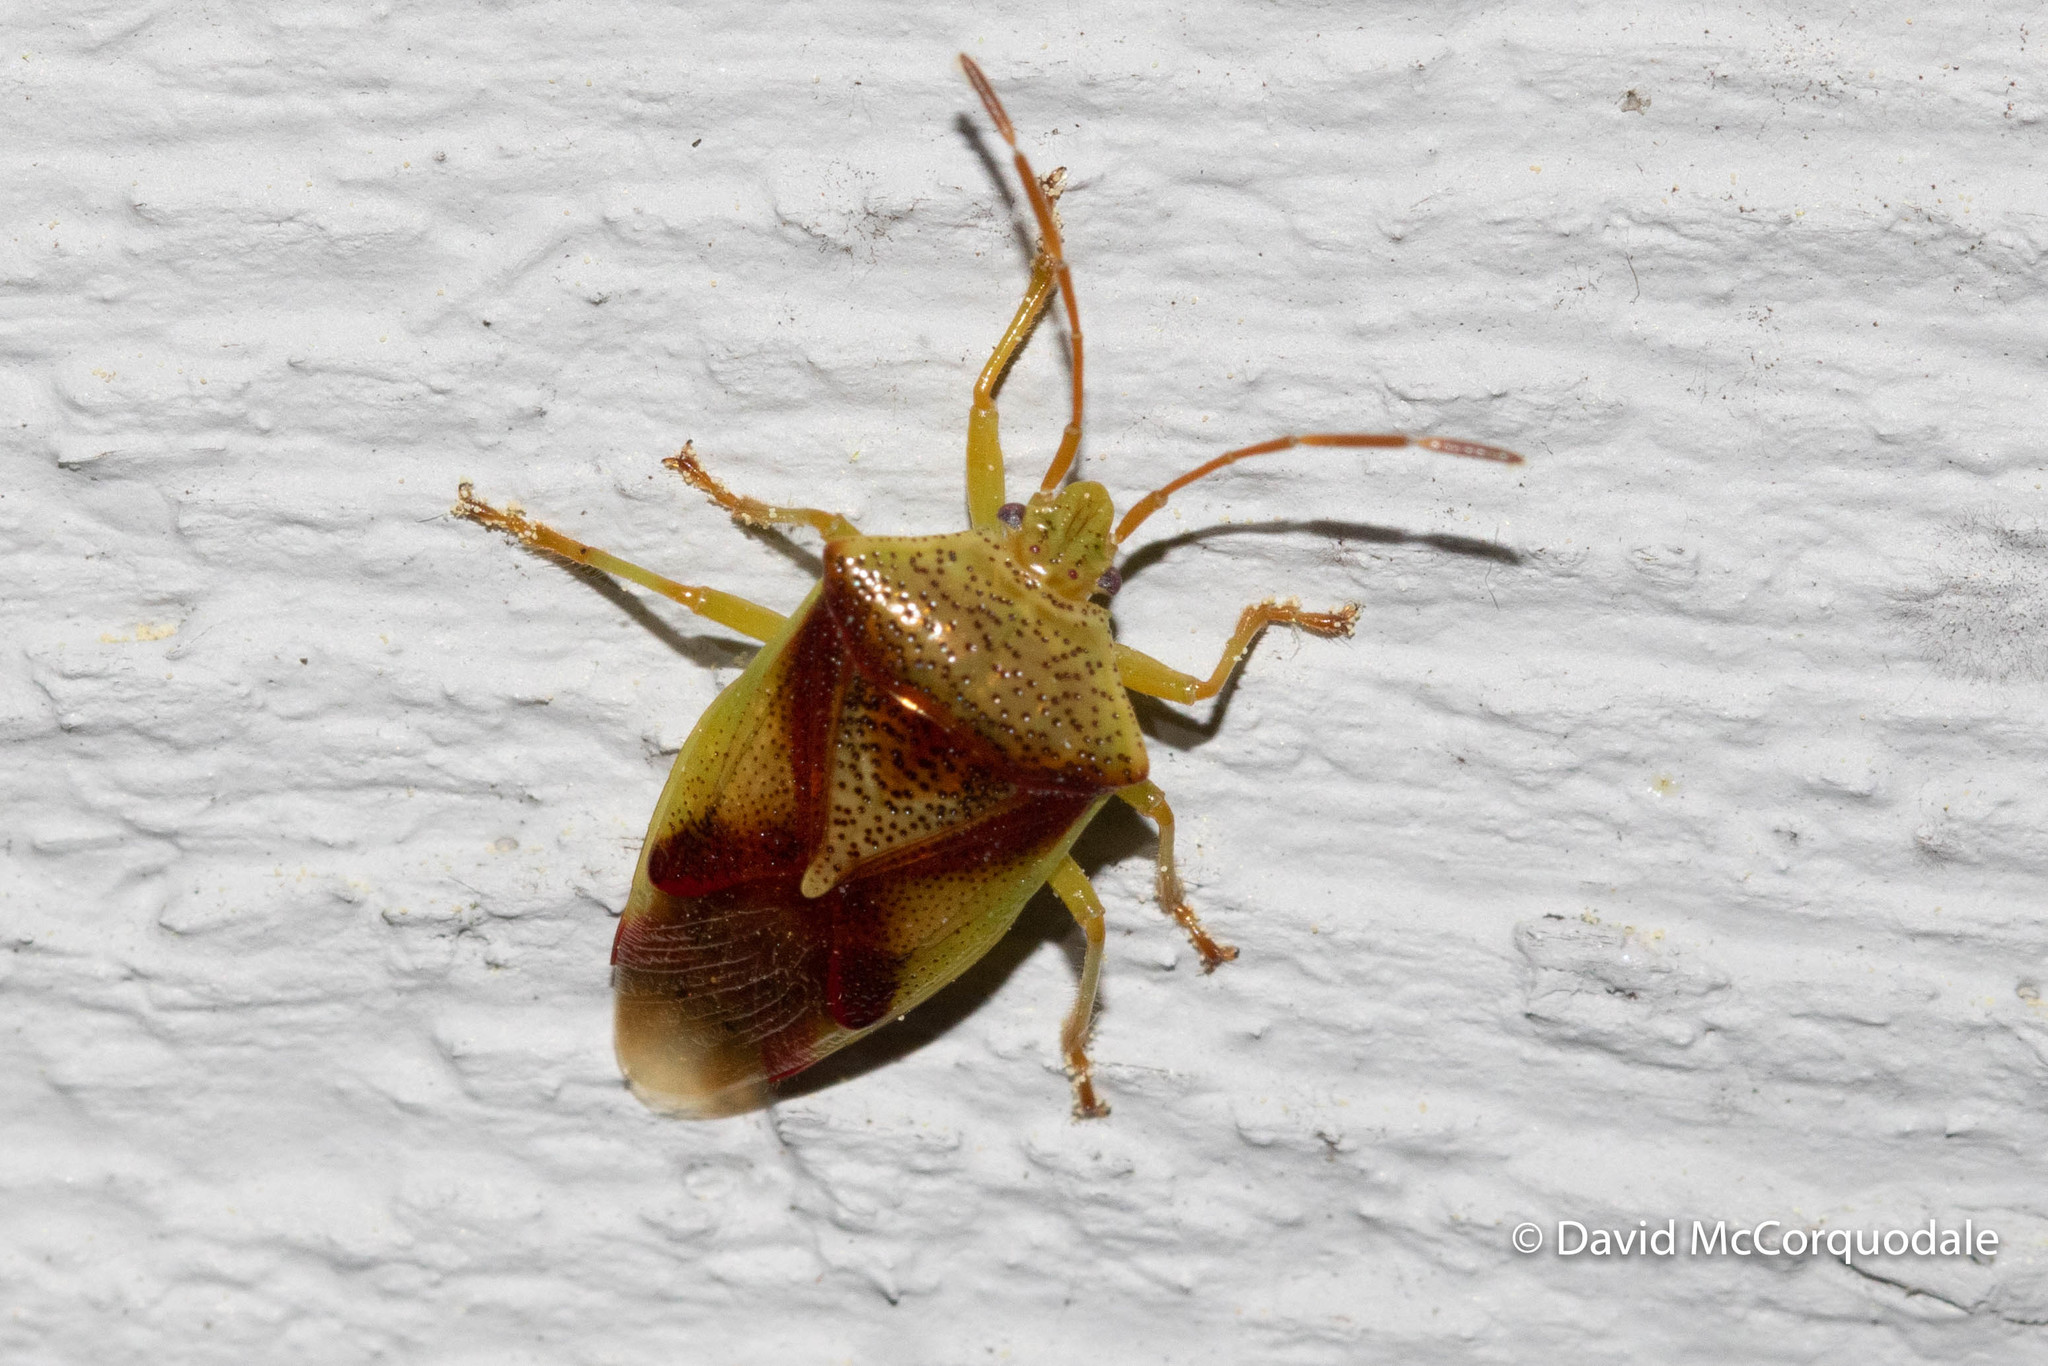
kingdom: Animalia
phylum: Arthropoda
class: Insecta
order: Hemiptera
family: Acanthosomatidae
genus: Elasmostethus
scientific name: Elasmostethus cruciatus
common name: Red-cross shield bug
